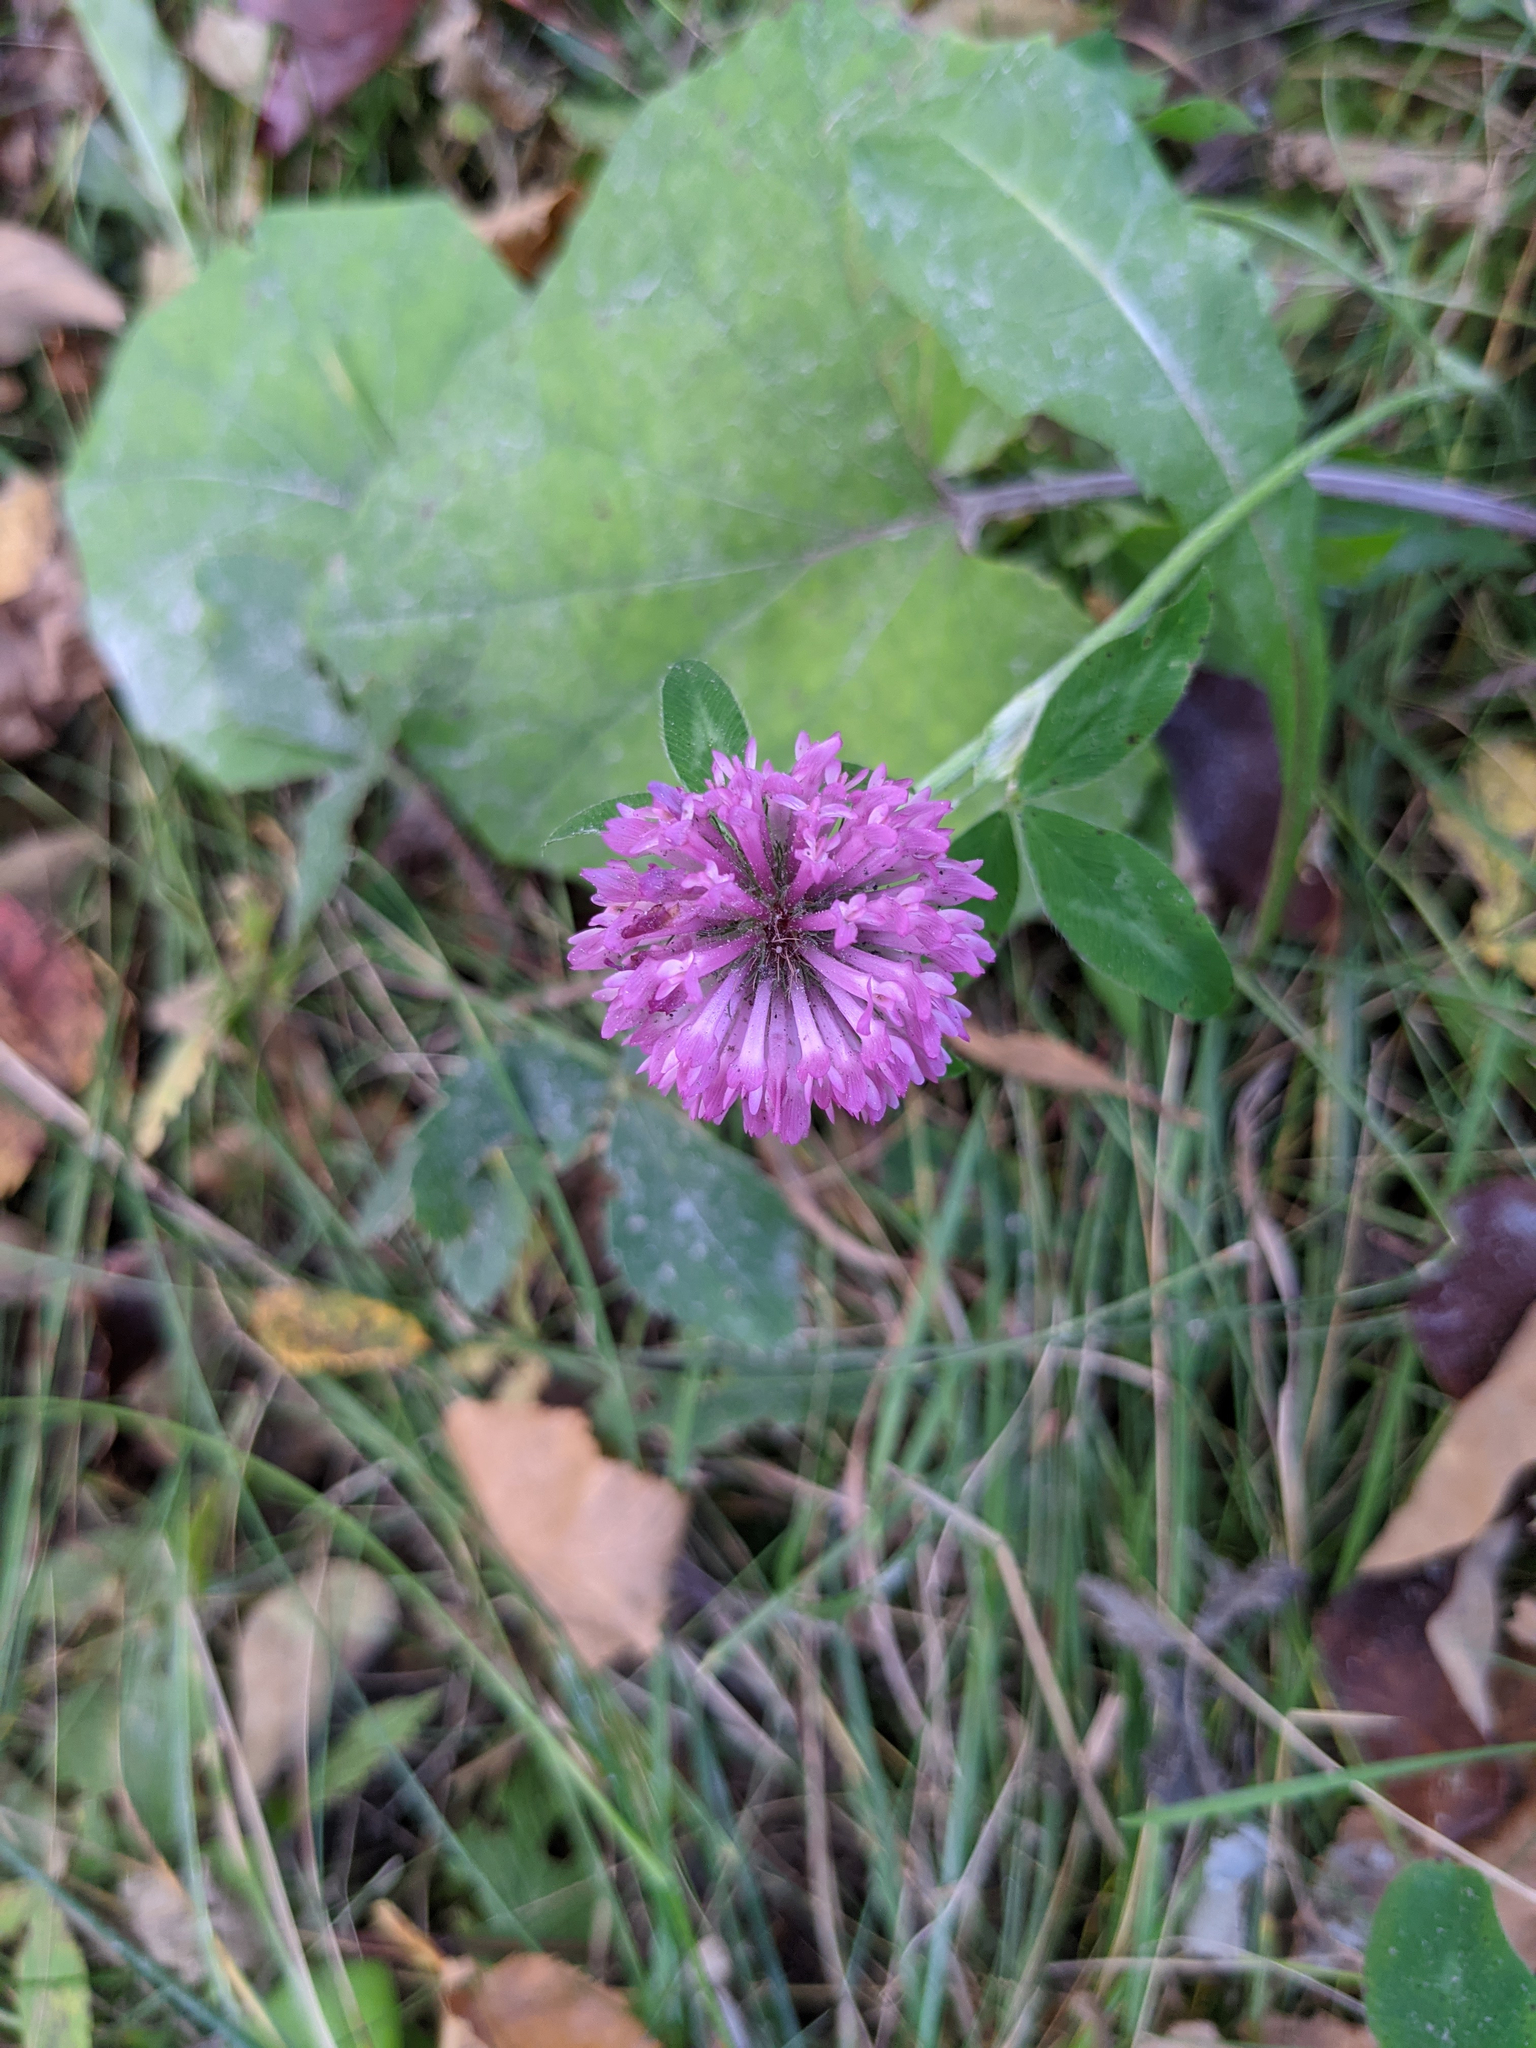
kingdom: Plantae
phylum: Tracheophyta
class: Magnoliopsida
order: Fabales
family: Fabaceae
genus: Trifolium
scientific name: Trifolium pratense
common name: Red clover
